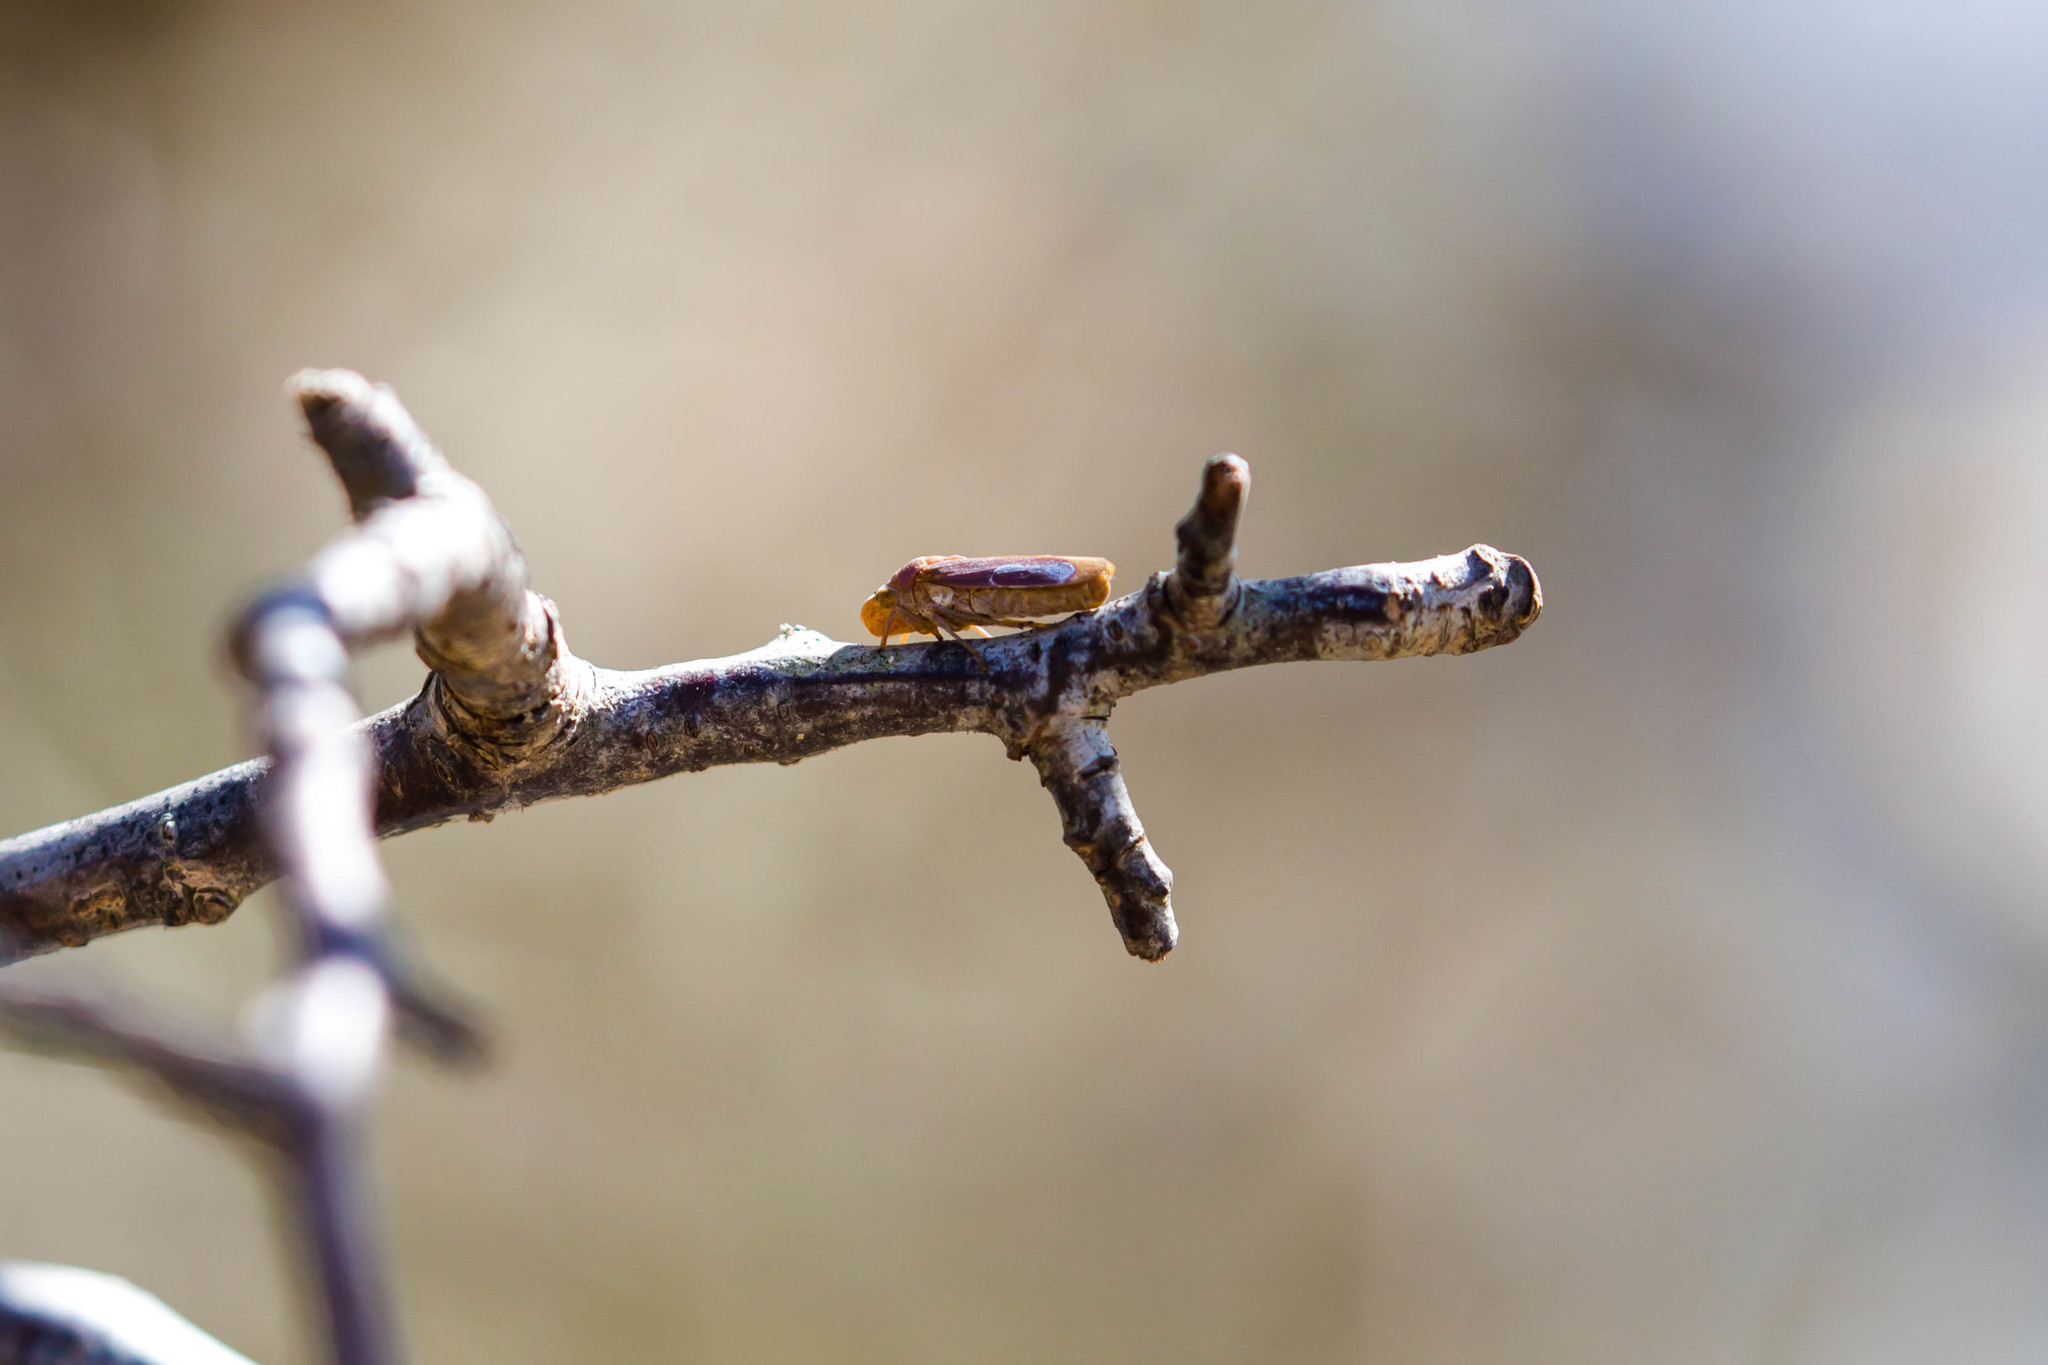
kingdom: Animalia
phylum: Arthropoda
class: Insecta
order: Hemiptera
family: Cicadellidae
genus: Oncometopia
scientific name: Oncometopia hamiltoni
